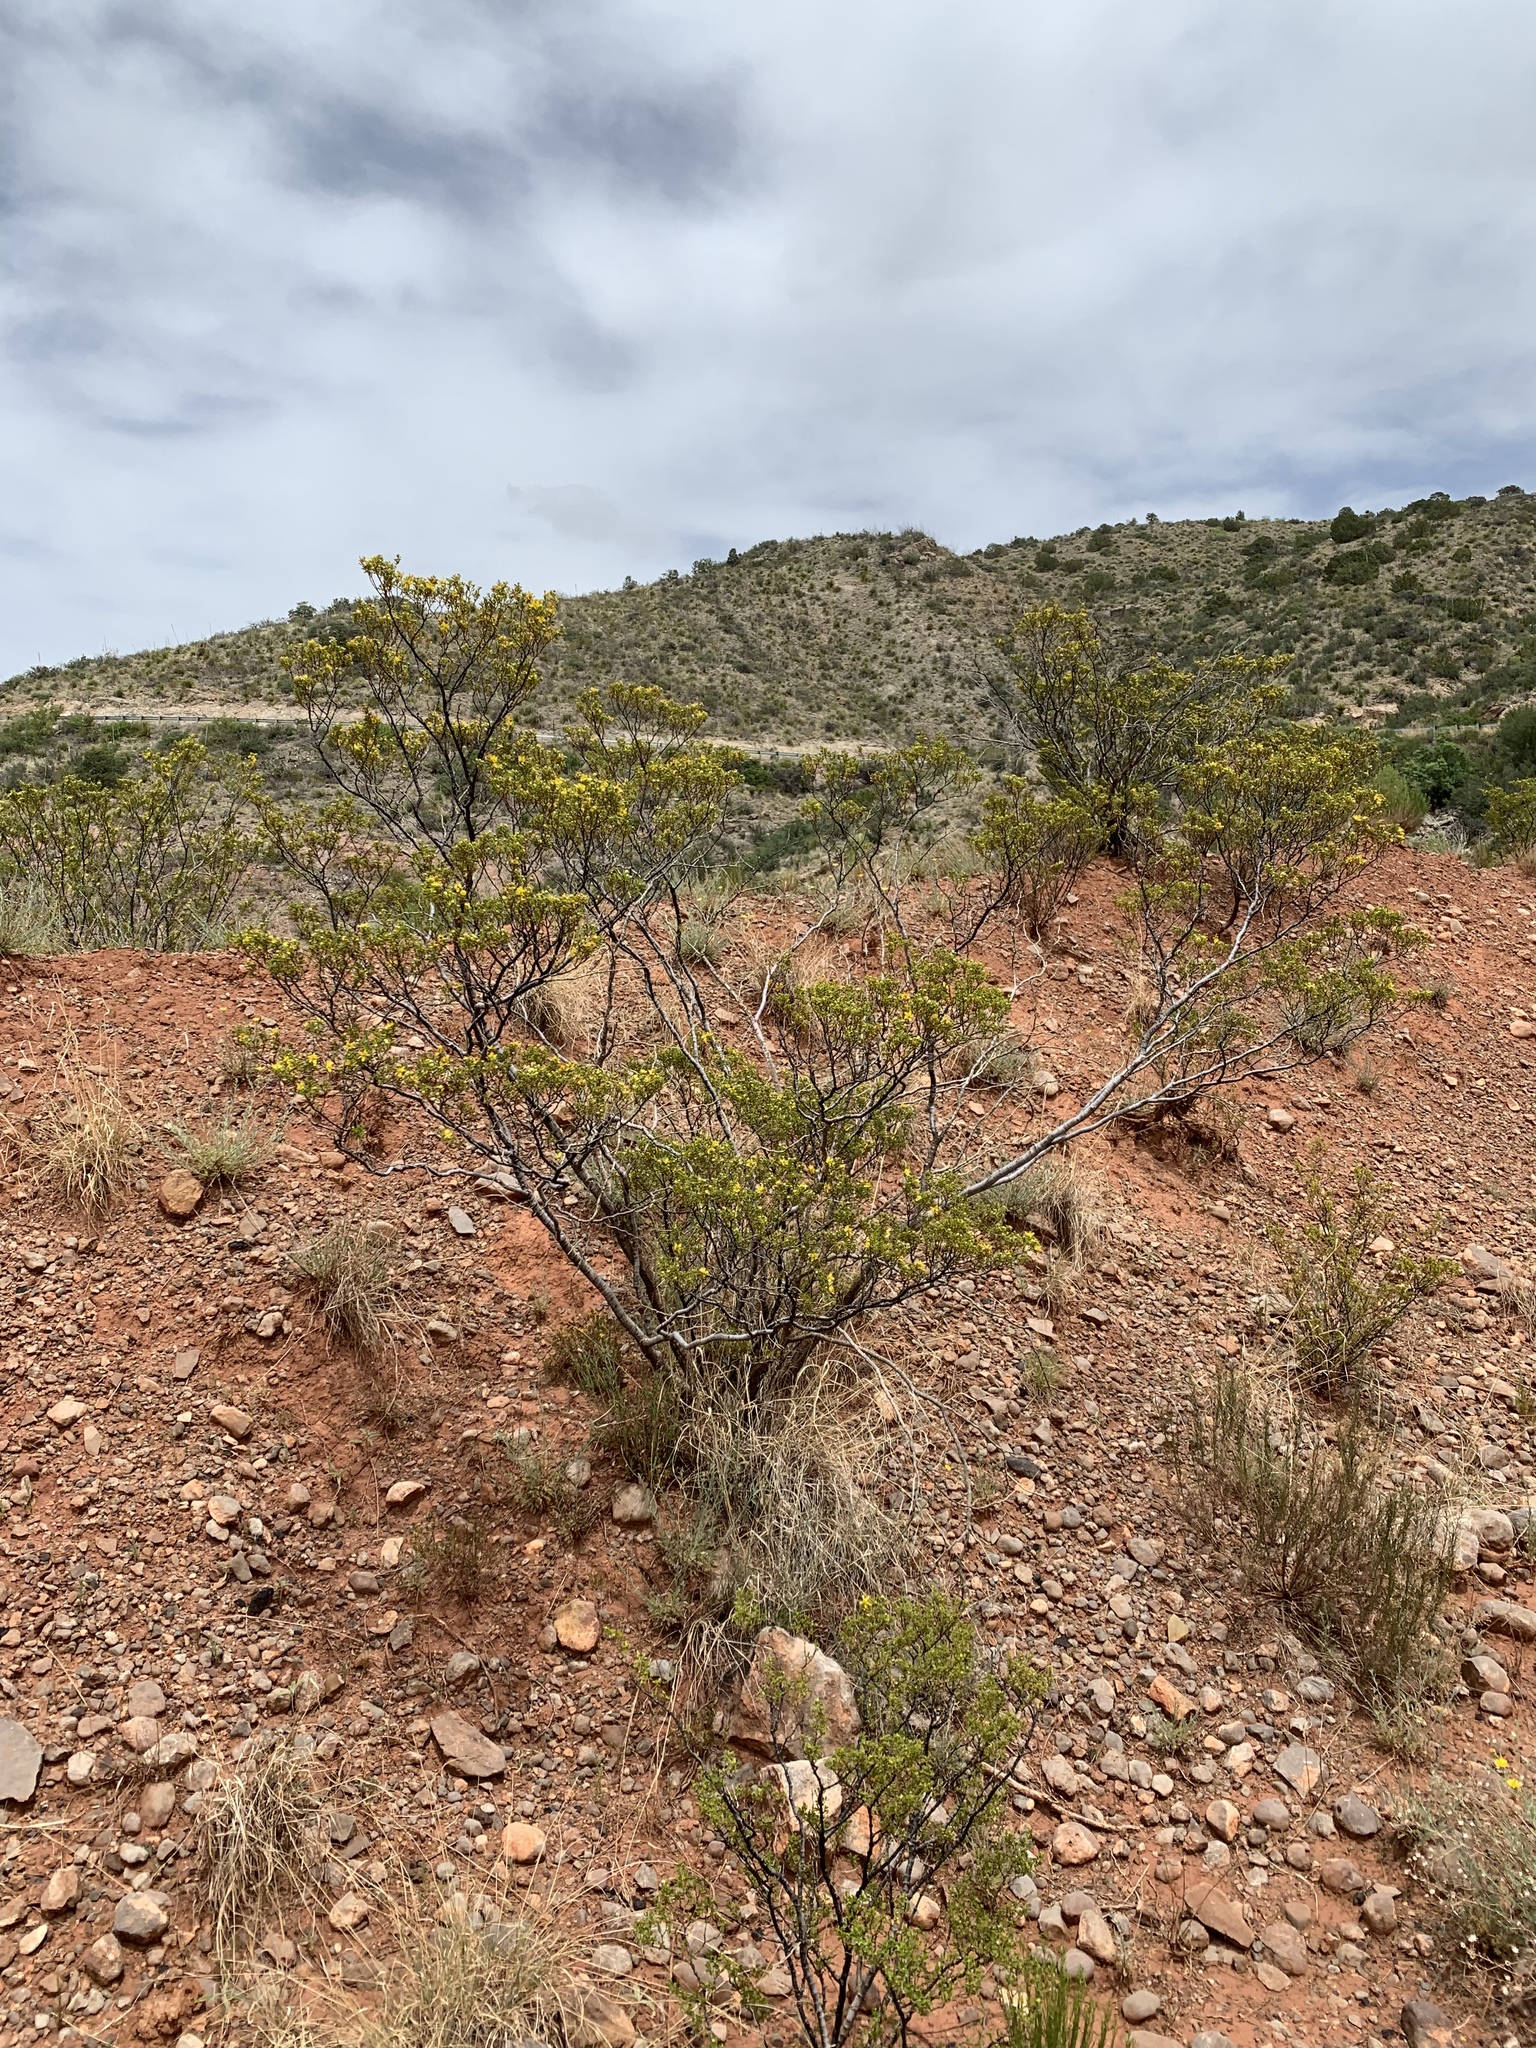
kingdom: Plantae
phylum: Tracheophyta
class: Magnoliopsida
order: Zygophyllales
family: Zygophyllaceae
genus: Larrea
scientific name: Larrea tridentata
